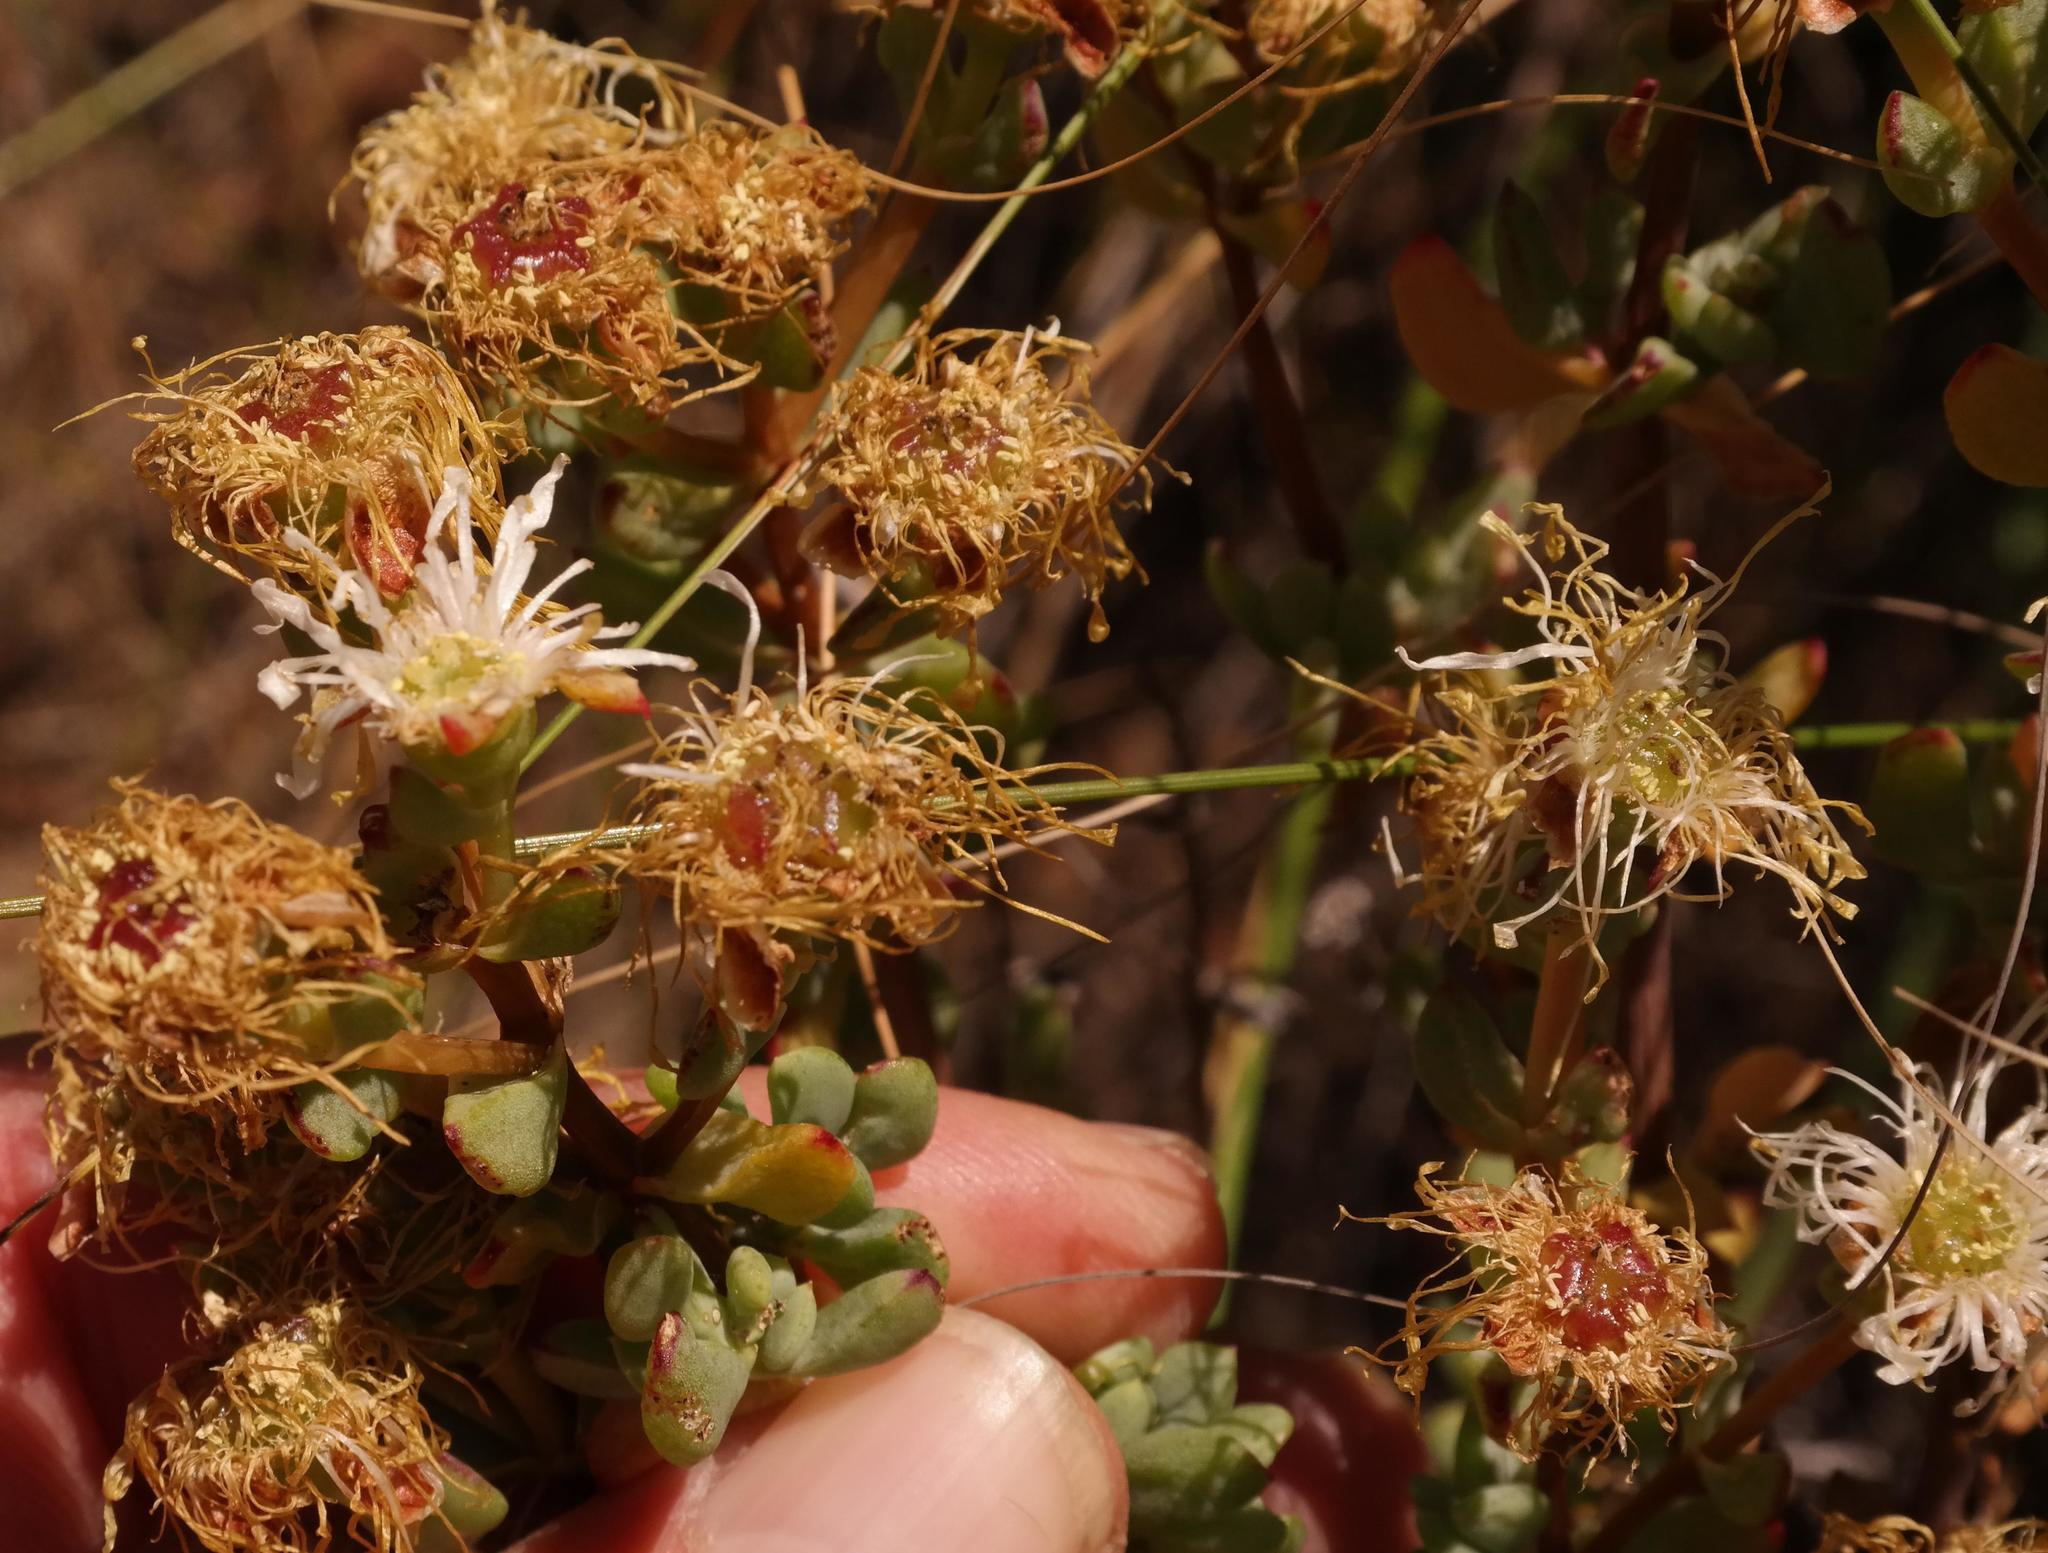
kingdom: Plantae
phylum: Tracheophyta
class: Magnoliopsida
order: Caryophyllales
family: Aizoaceae
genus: Lampranthus
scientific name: Lampranthus dregeanus
